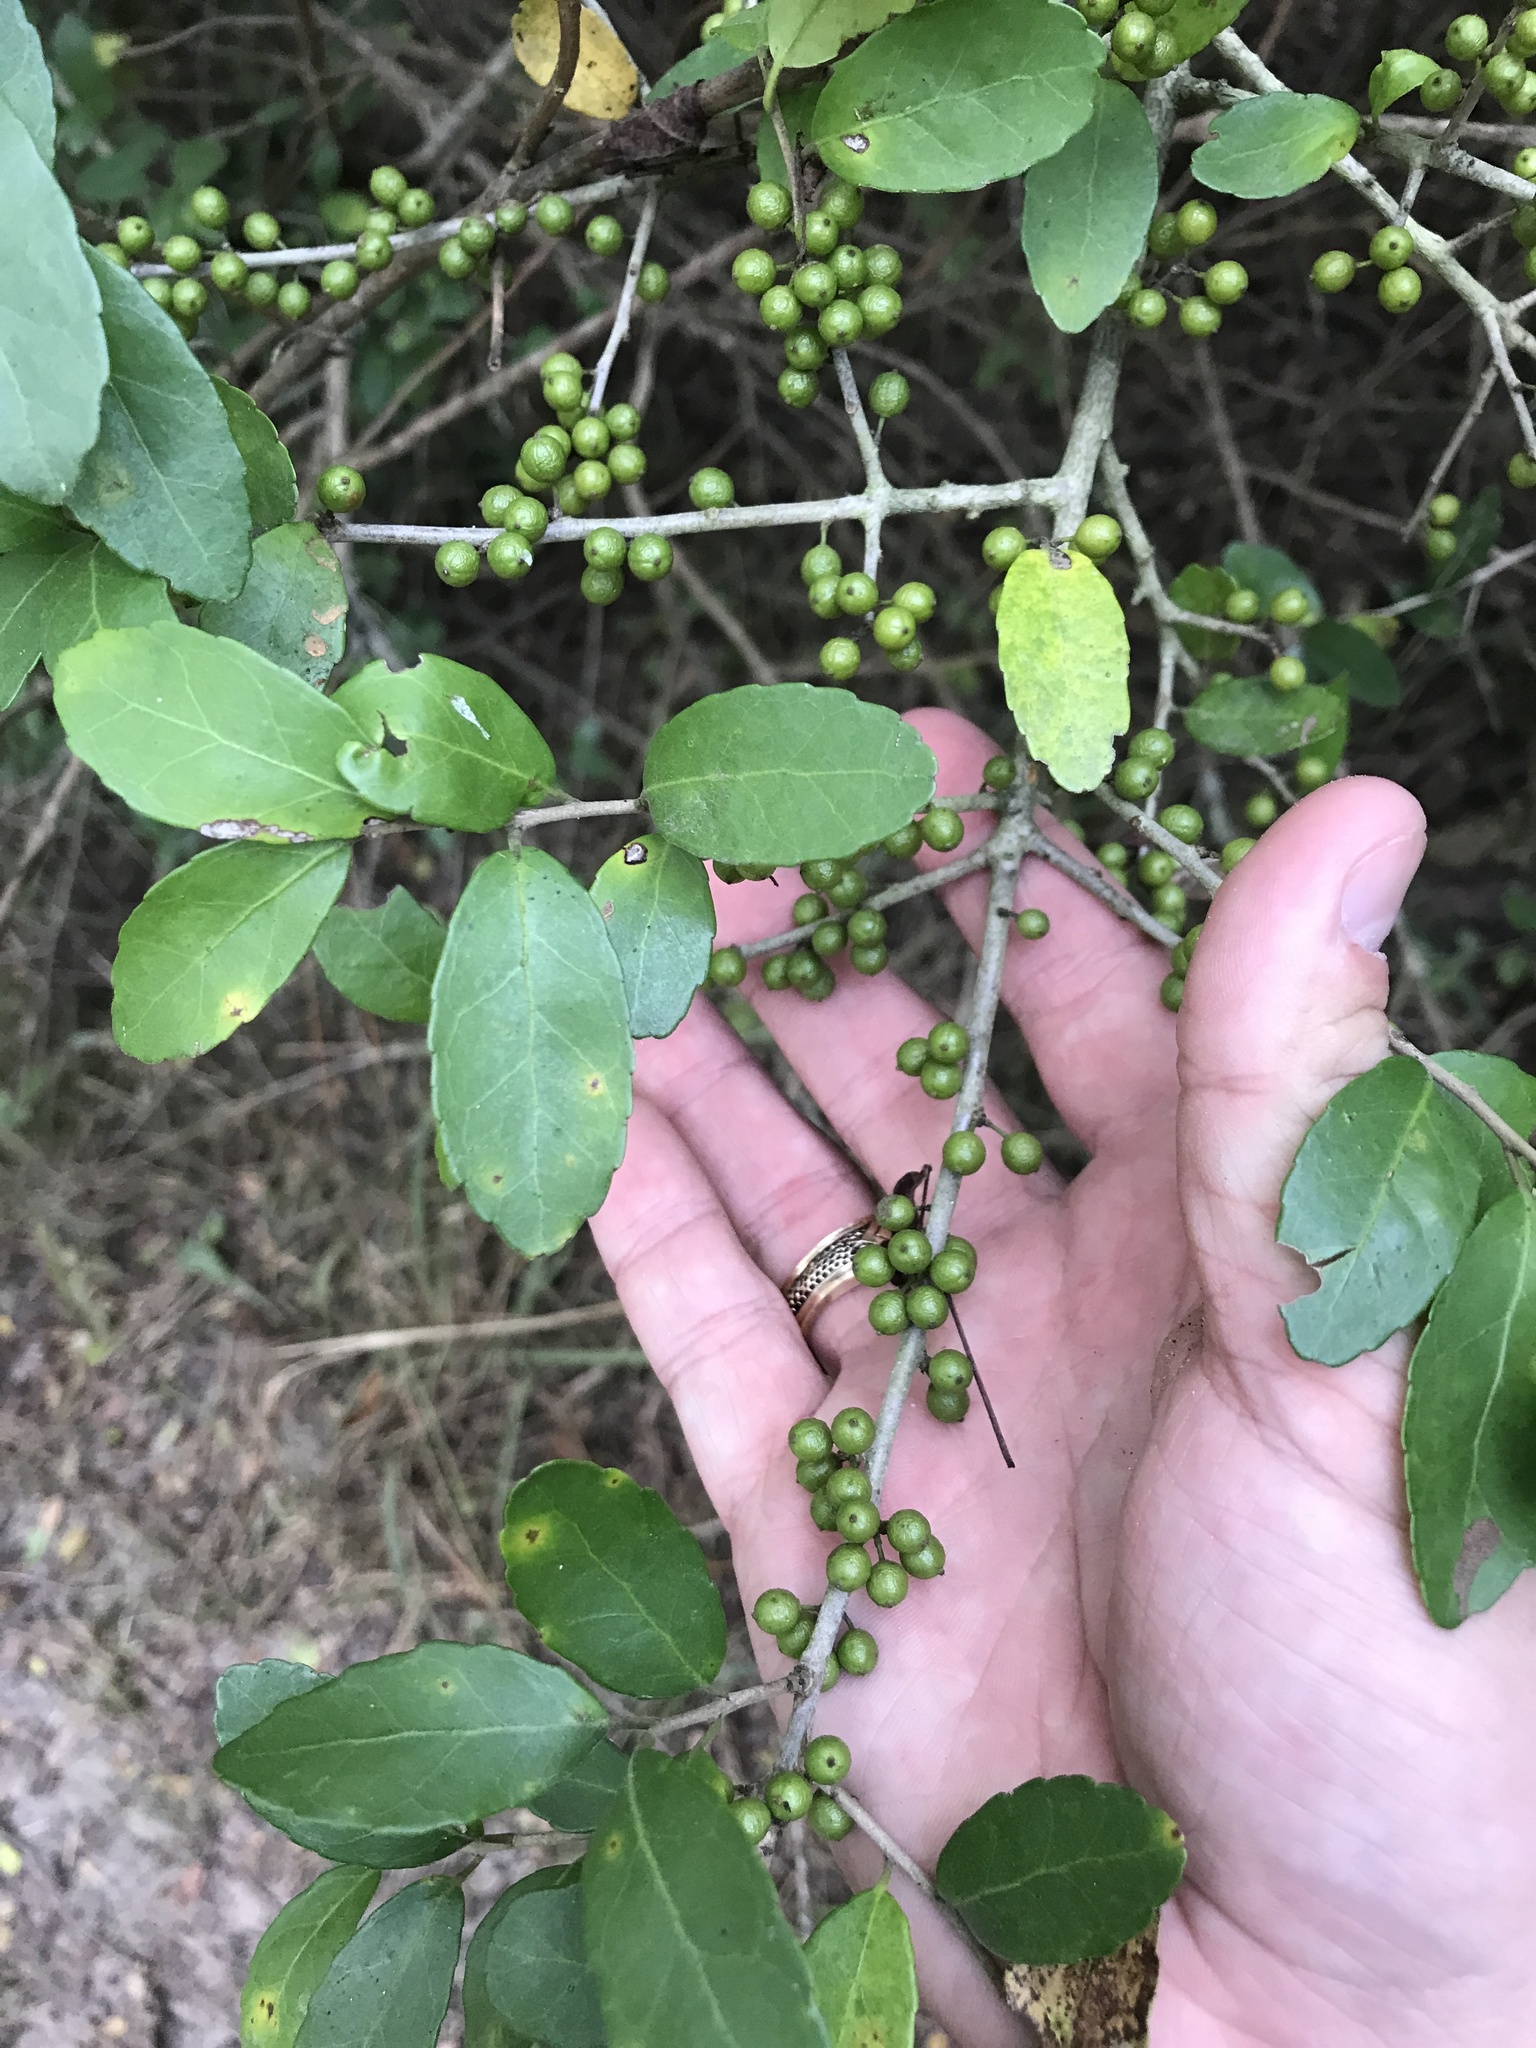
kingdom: Plantae
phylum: Tracheophyta
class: Magnoliopsida
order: Aquifoliales
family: Aquifoliaceae
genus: Ilex
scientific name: Ilex vomitoria
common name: Yaupon holly
